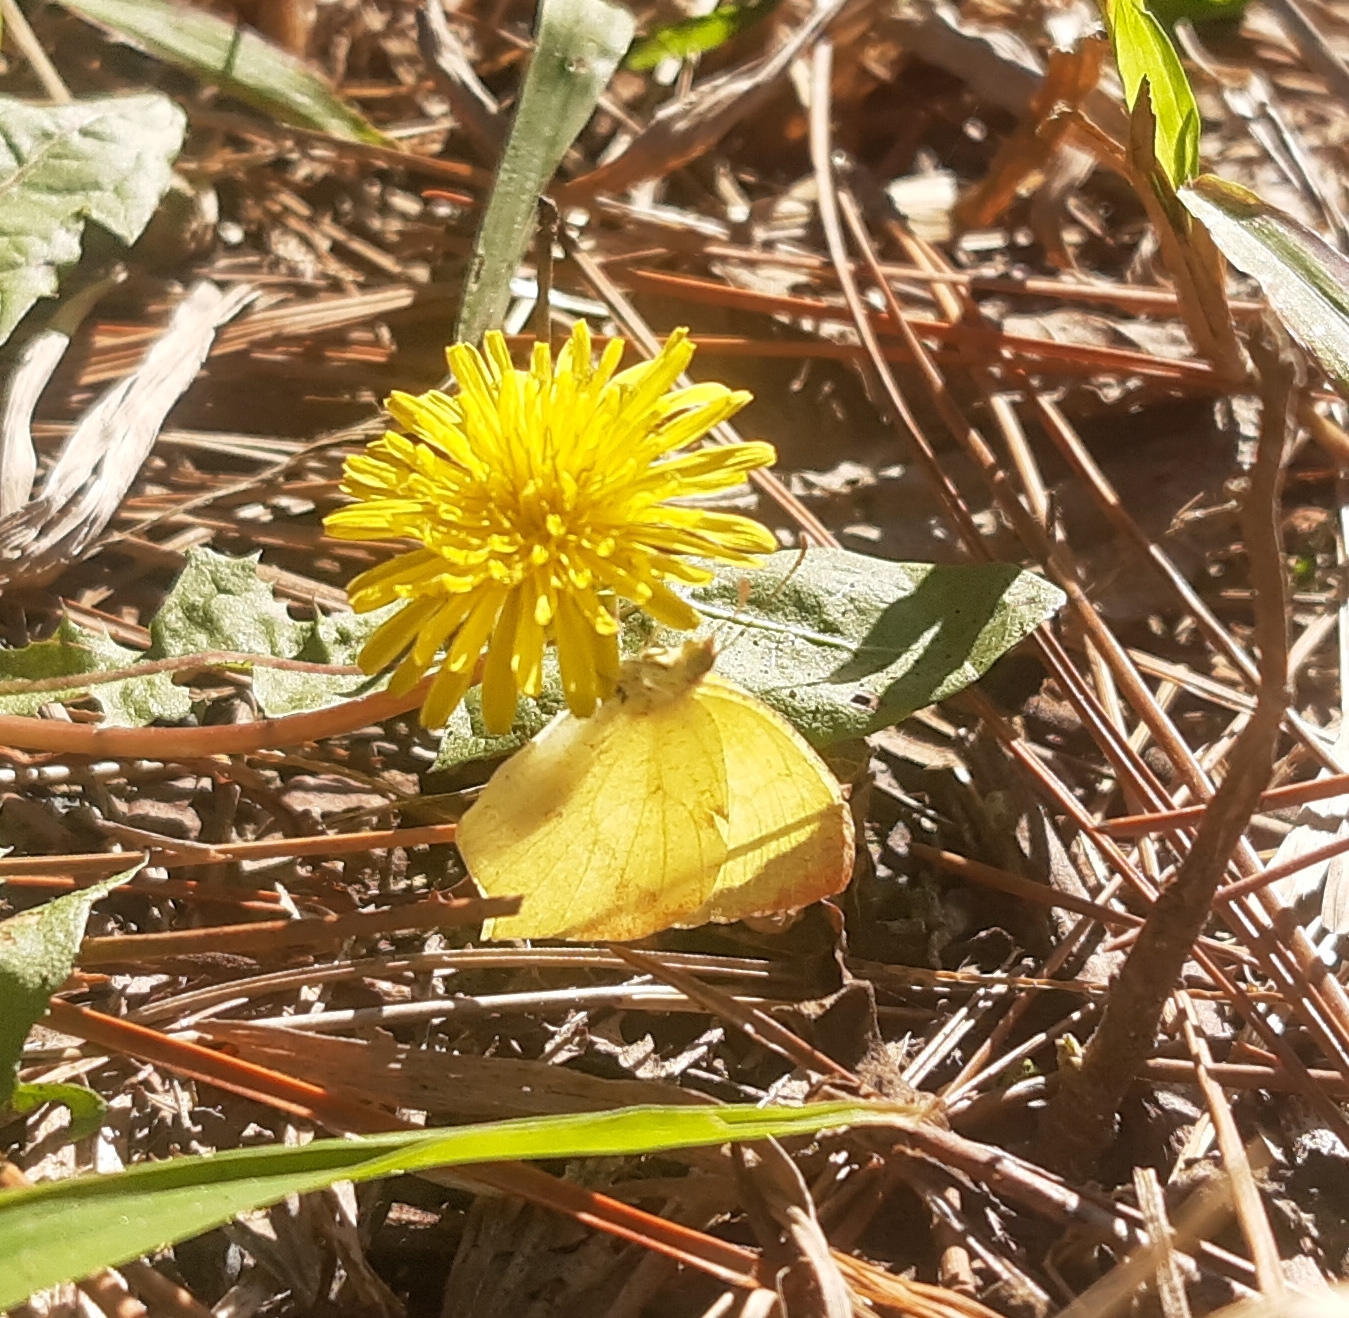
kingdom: Animalia
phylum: Arthropoda
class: Insecta
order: Lepidoptera
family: Pieridae
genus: Abaeis
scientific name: Abaeis
